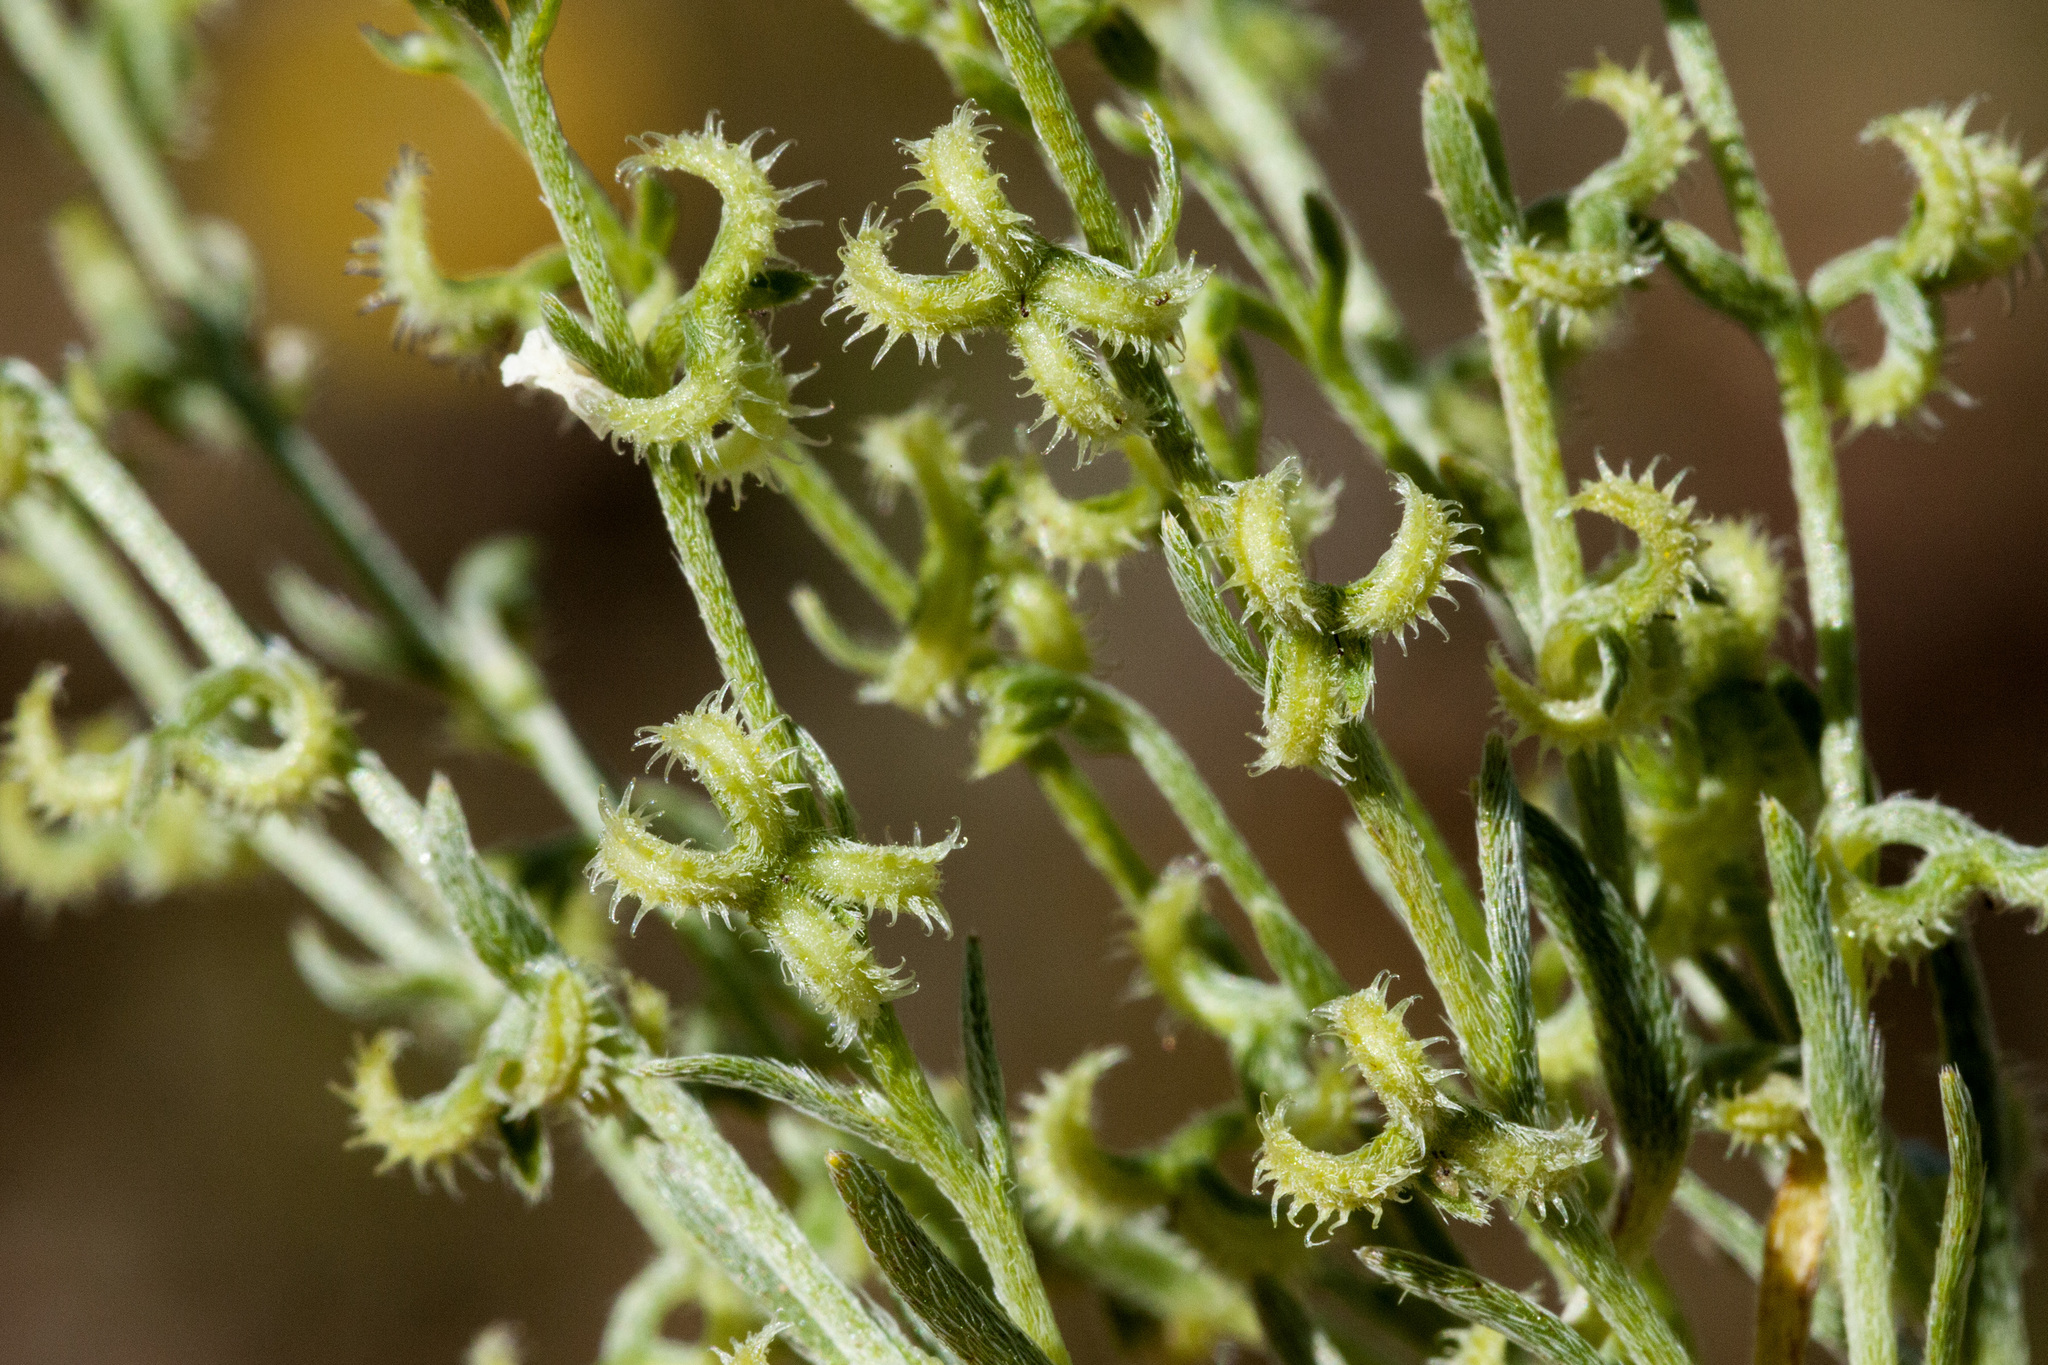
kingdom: Plantae
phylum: Tracheophyta
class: Magnoliopsida
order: Boraginales
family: Boraginaceae
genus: Pectocarya
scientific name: Pectocarya recurvata
